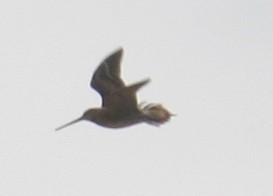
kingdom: Animalia
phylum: Chordata
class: Aves
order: Charadriiformes
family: Scolopacidae
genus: Gallinago
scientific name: Gallinago delicata
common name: Wilson's snipe
